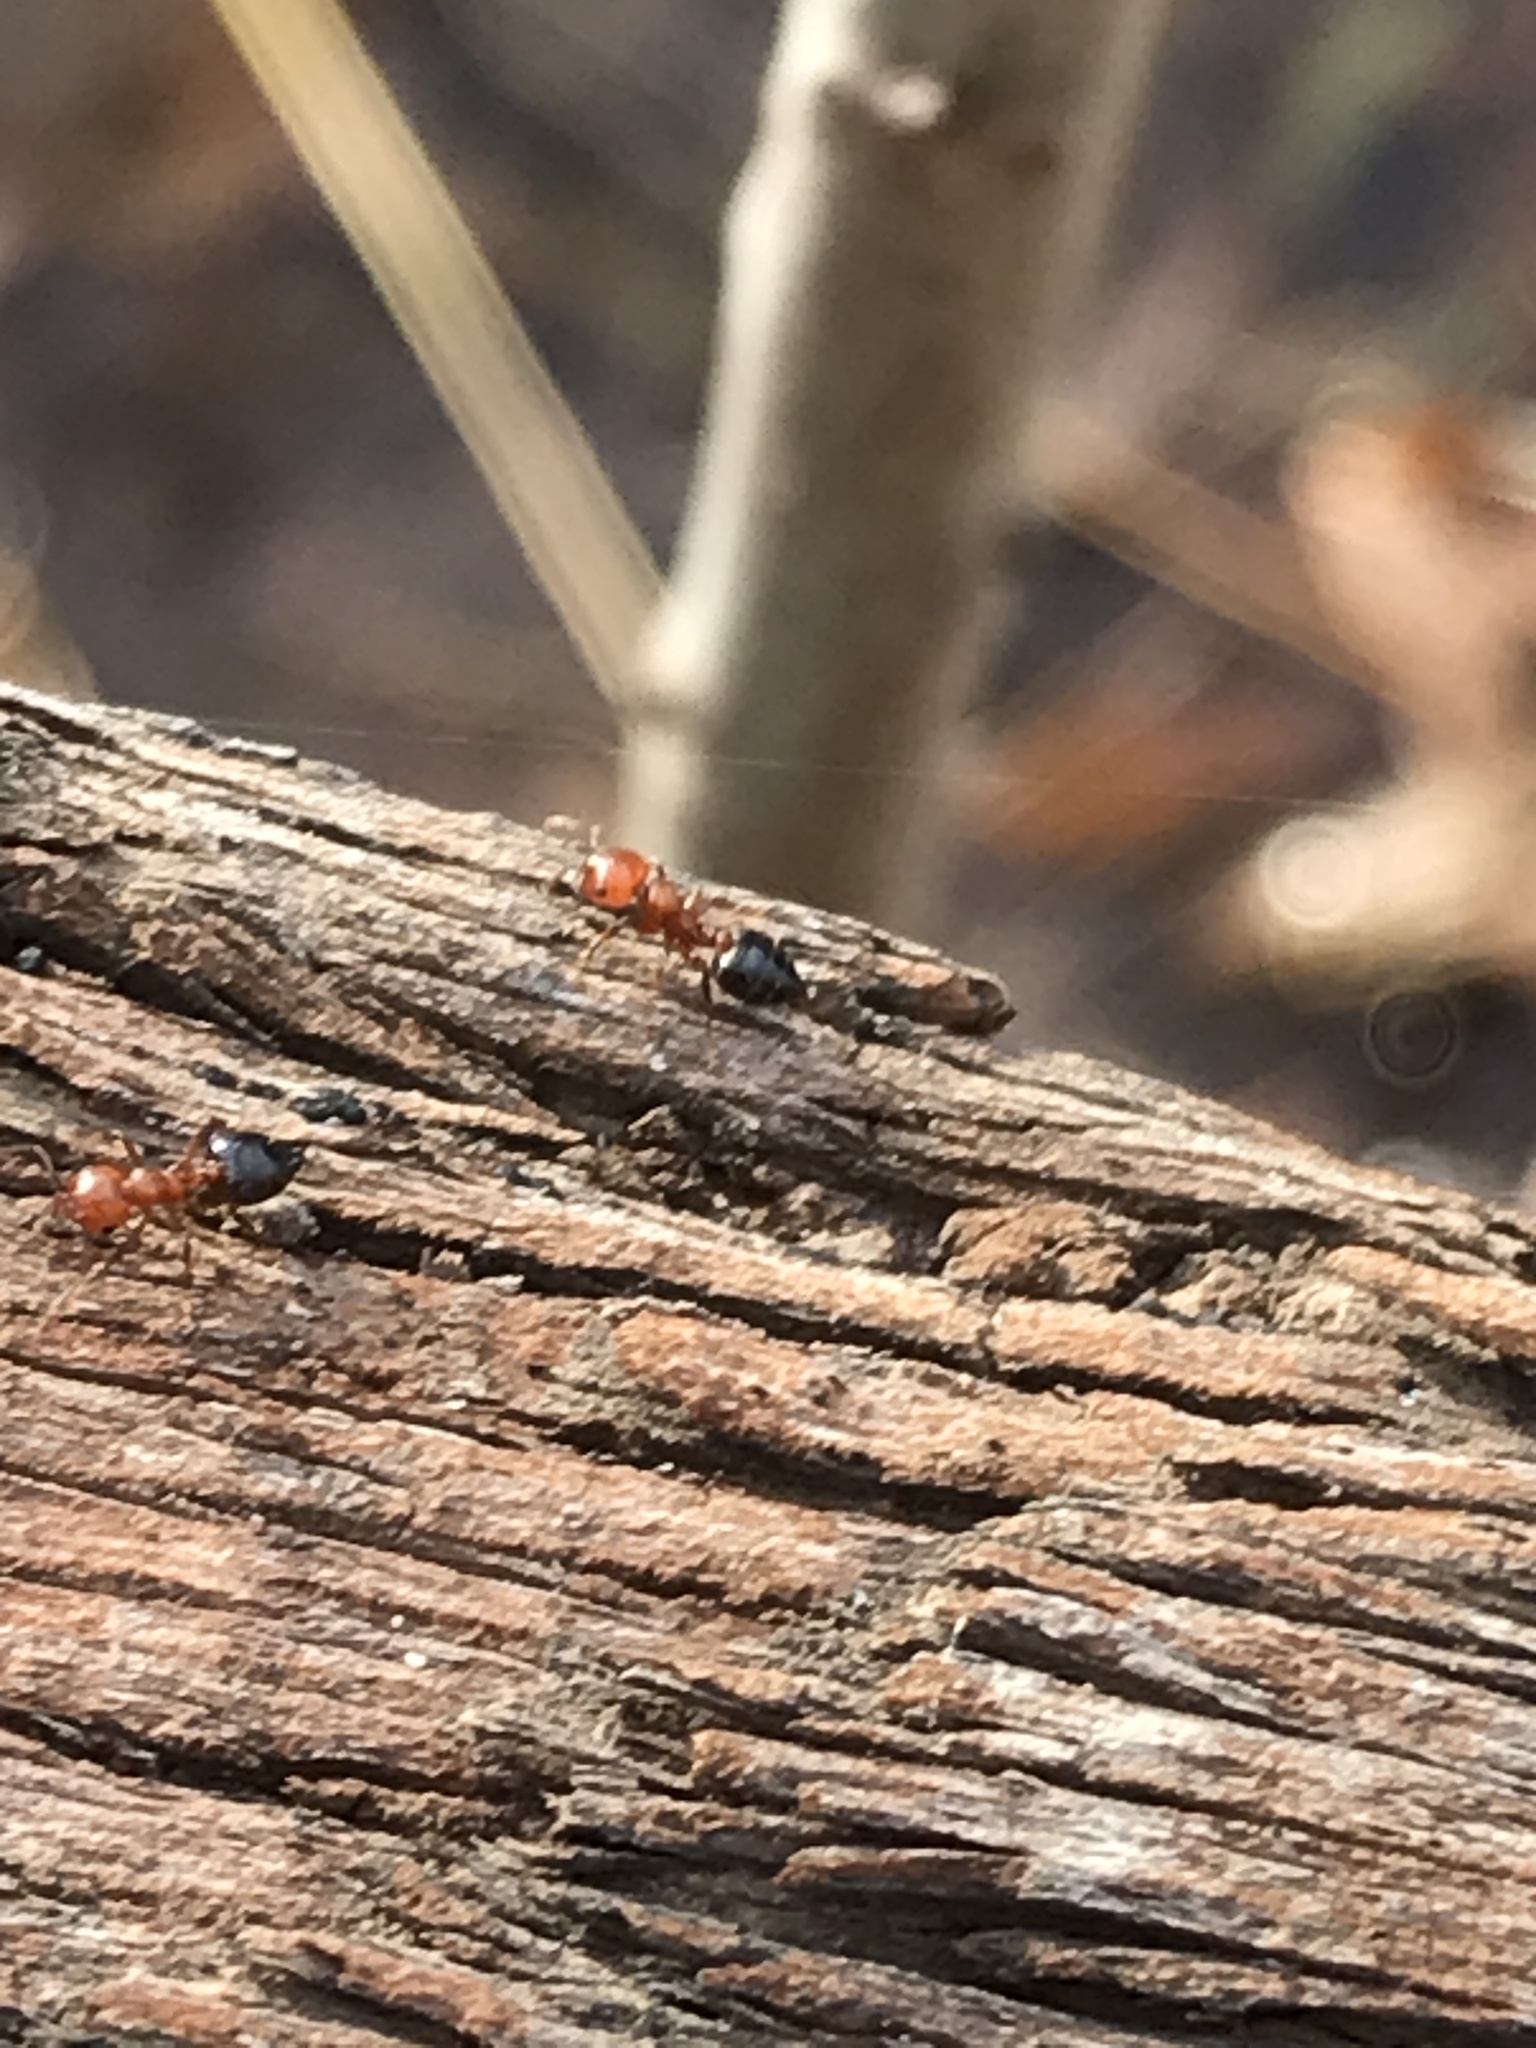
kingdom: Animalia
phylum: Arthropoda
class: Insecta
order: Hymenoptera
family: Formicidae
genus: Crematogaster
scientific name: Crematogaster laeviuscula
